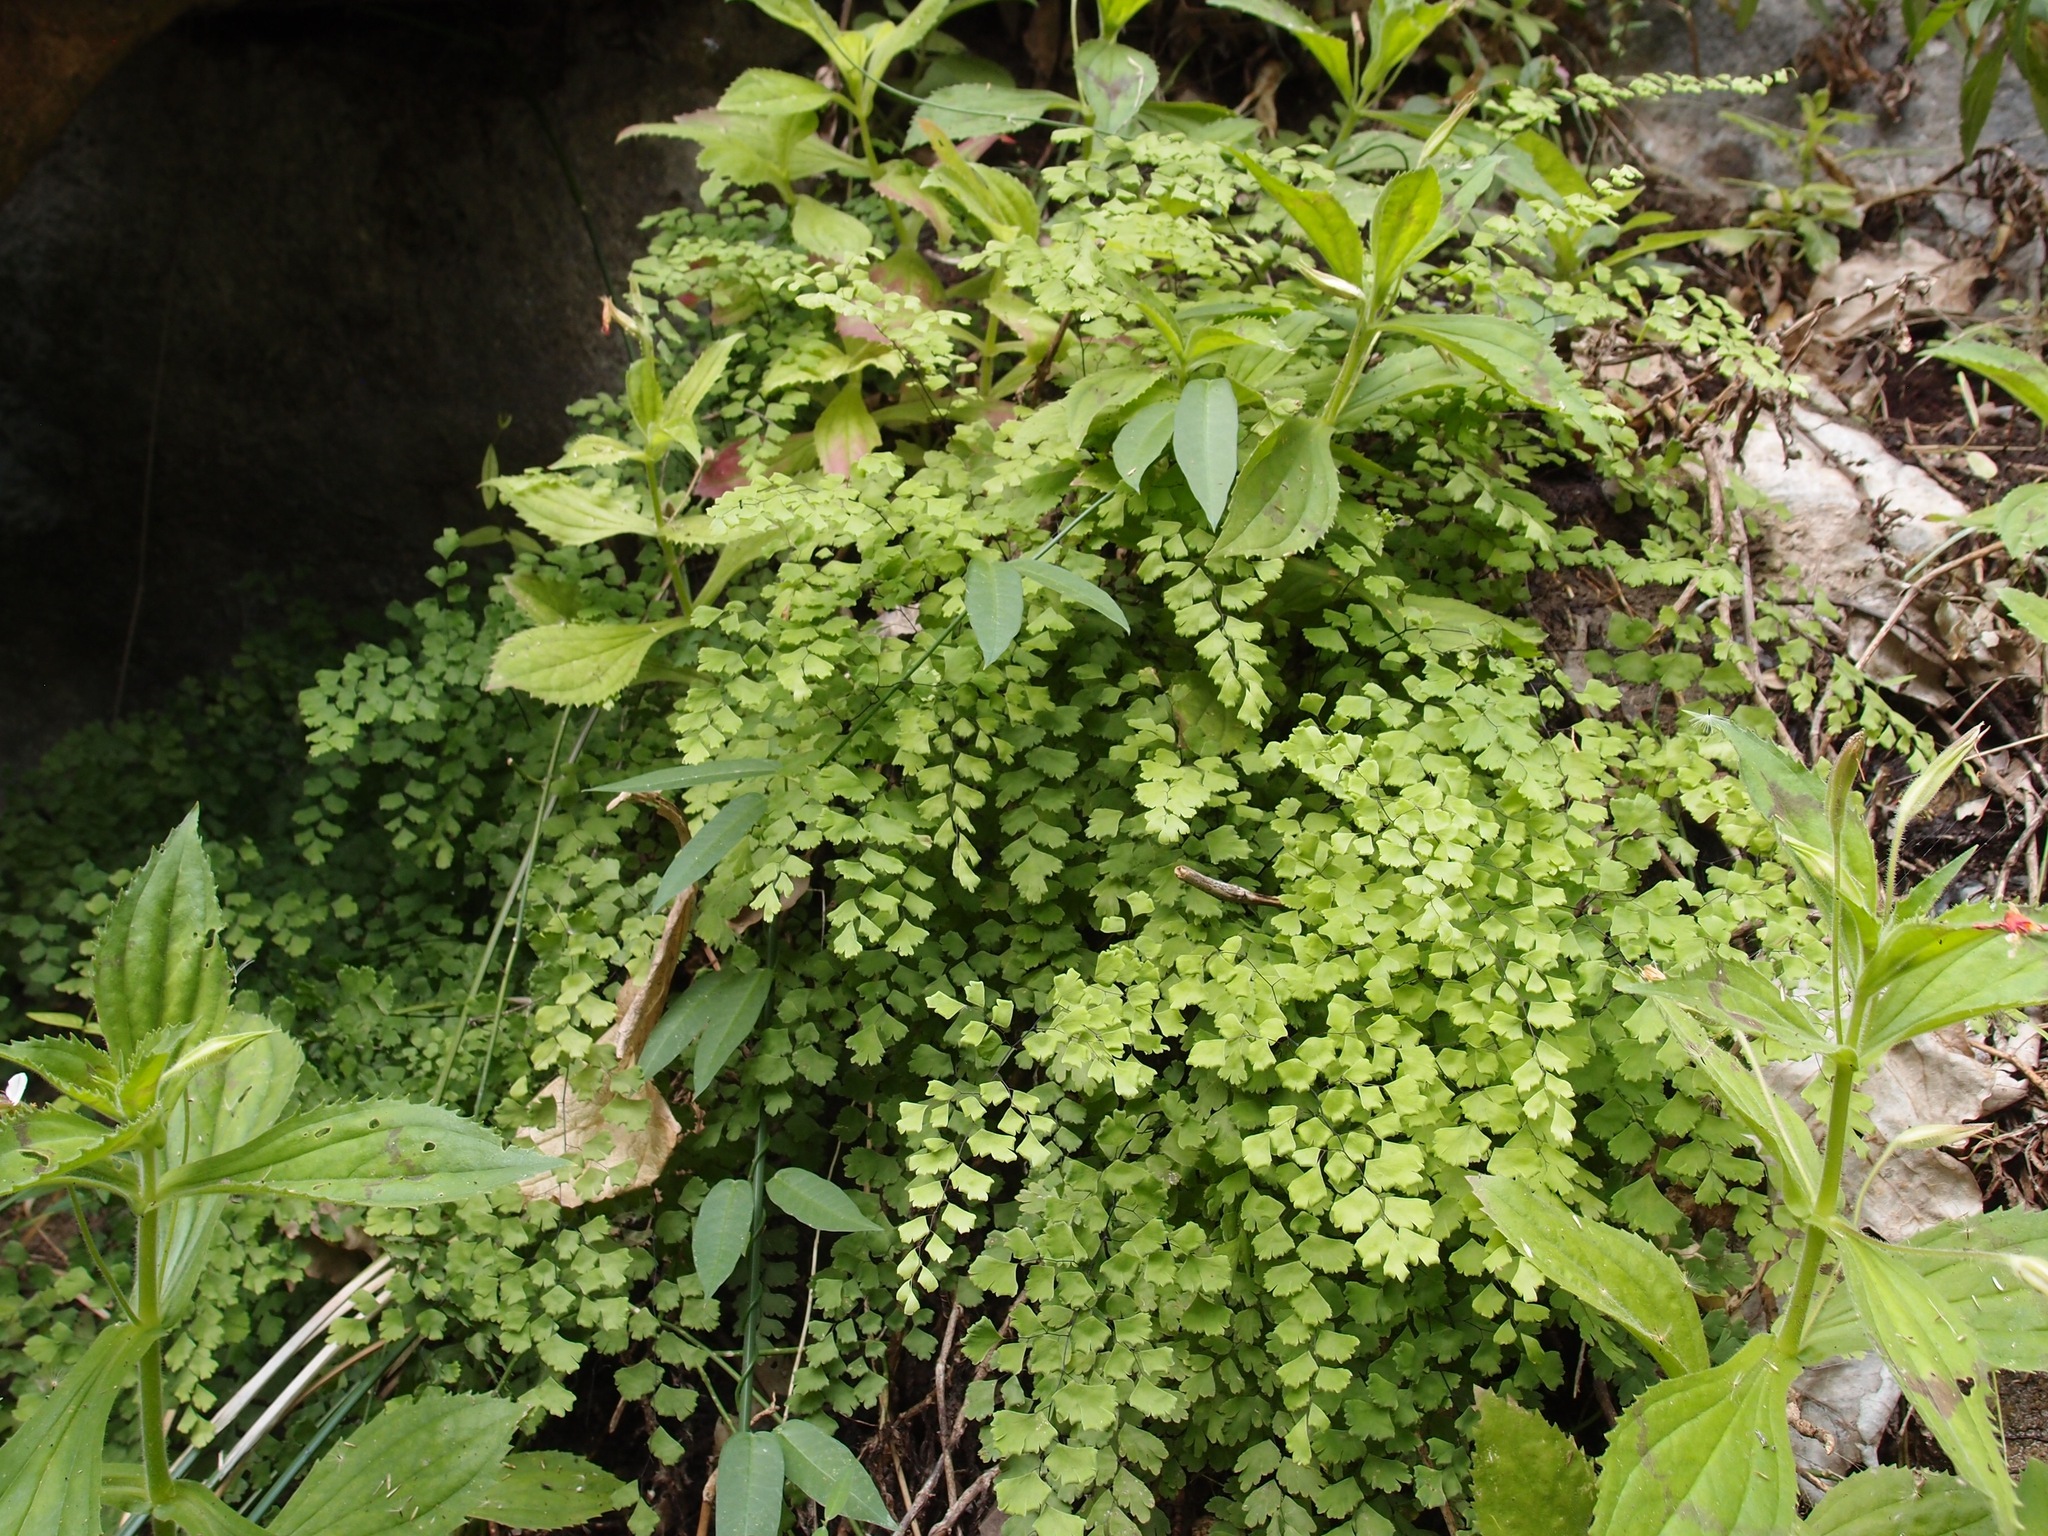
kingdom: Plantae
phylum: Tracheophyta
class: Polypodiopsida
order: Polypodiales
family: Pteridaceae
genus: Adiantum
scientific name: Adiantum capillus-veneris
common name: Maidenhair fern
